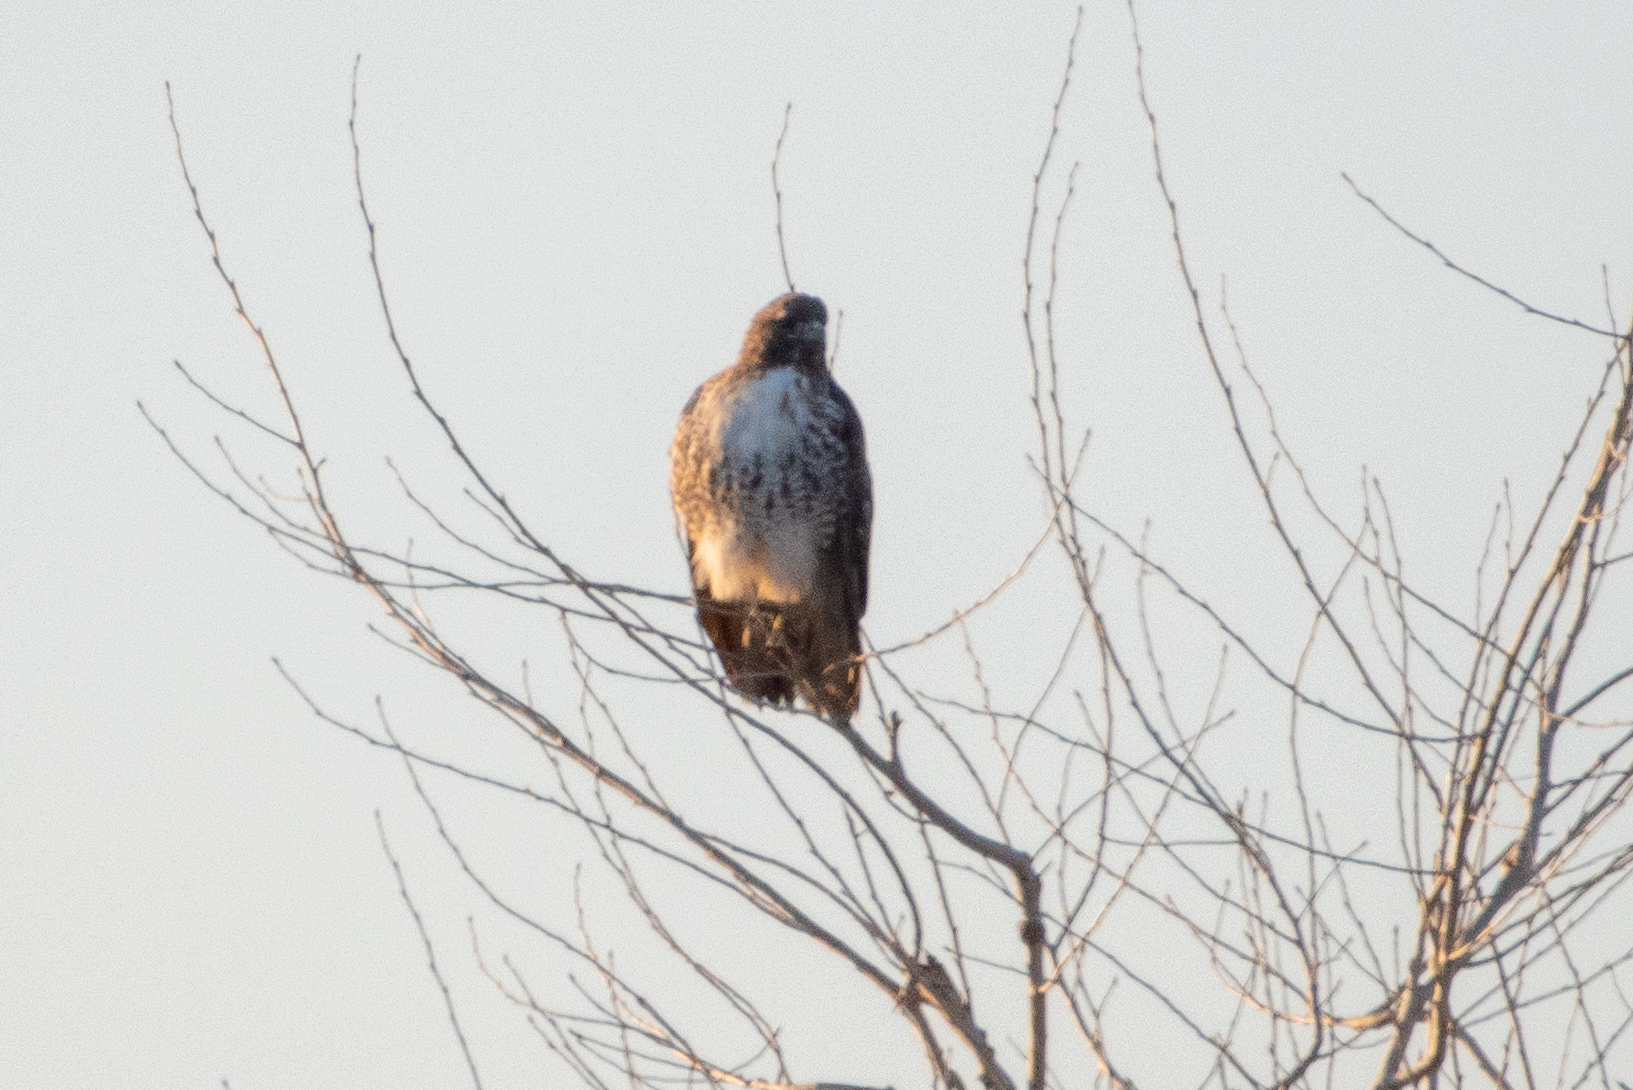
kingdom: Animalia
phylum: Chordata
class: Aves
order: Accipitriformes
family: Accipitridae
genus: Buteo
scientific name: Buteo jamaicensis
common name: Red-tailed hawk
